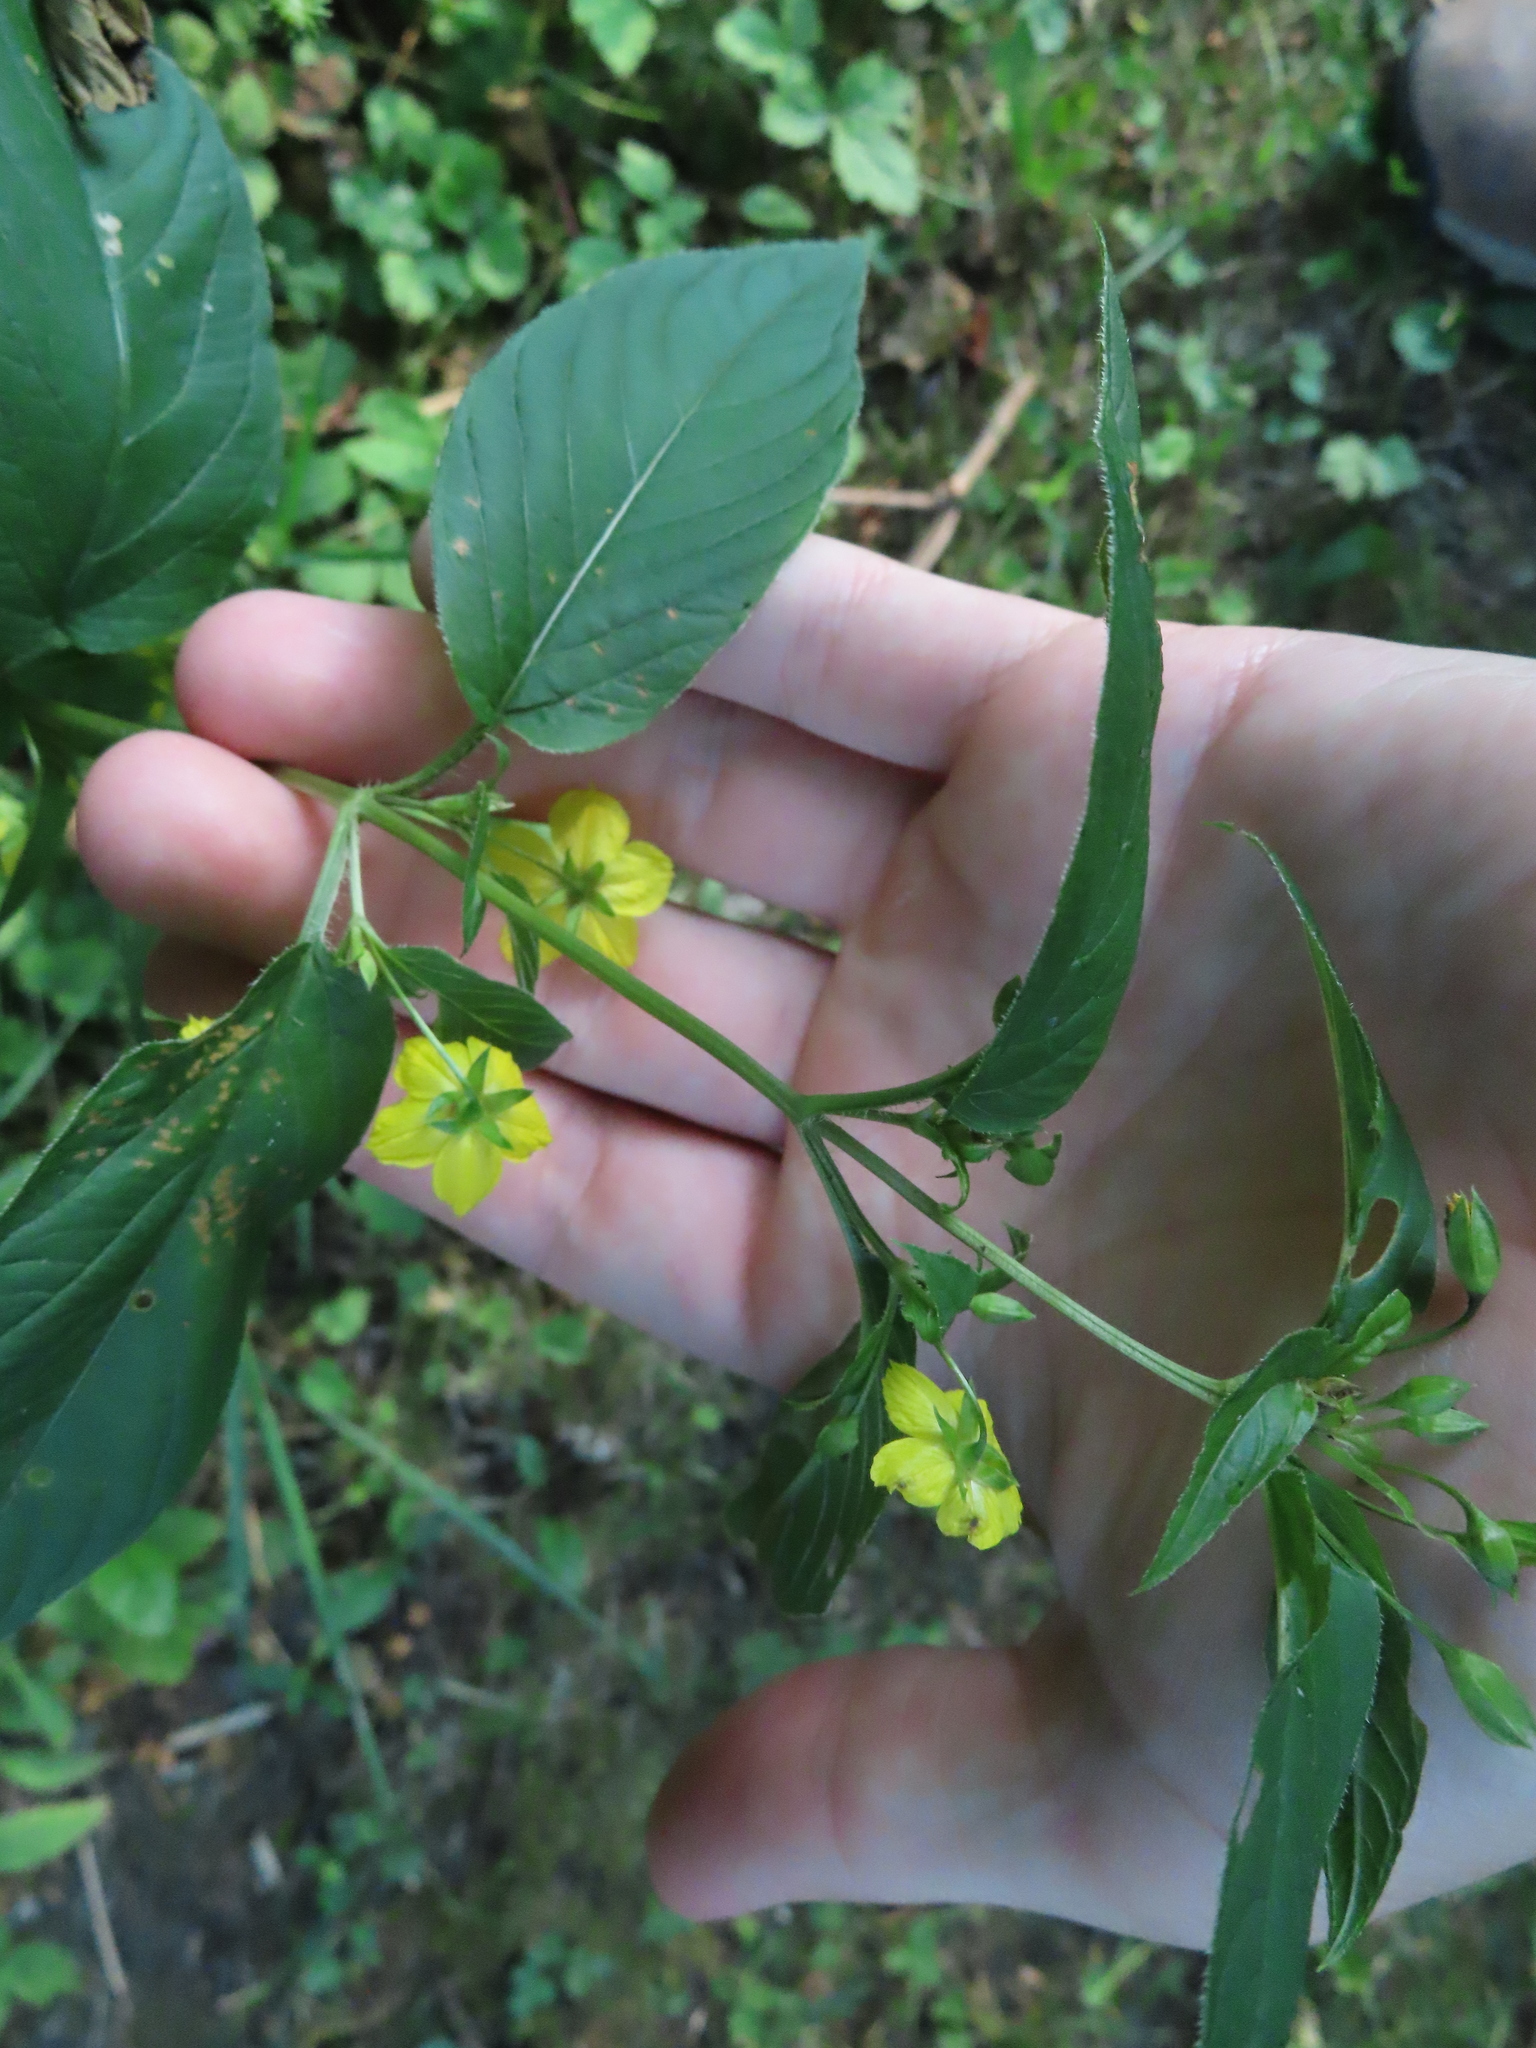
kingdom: Plantae
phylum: Tracheophyta
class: Magnoliopsida
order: Ericales
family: Primulaceae
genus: Lysimachia
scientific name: Lysimachia ciliata
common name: Fringed loosestrife
